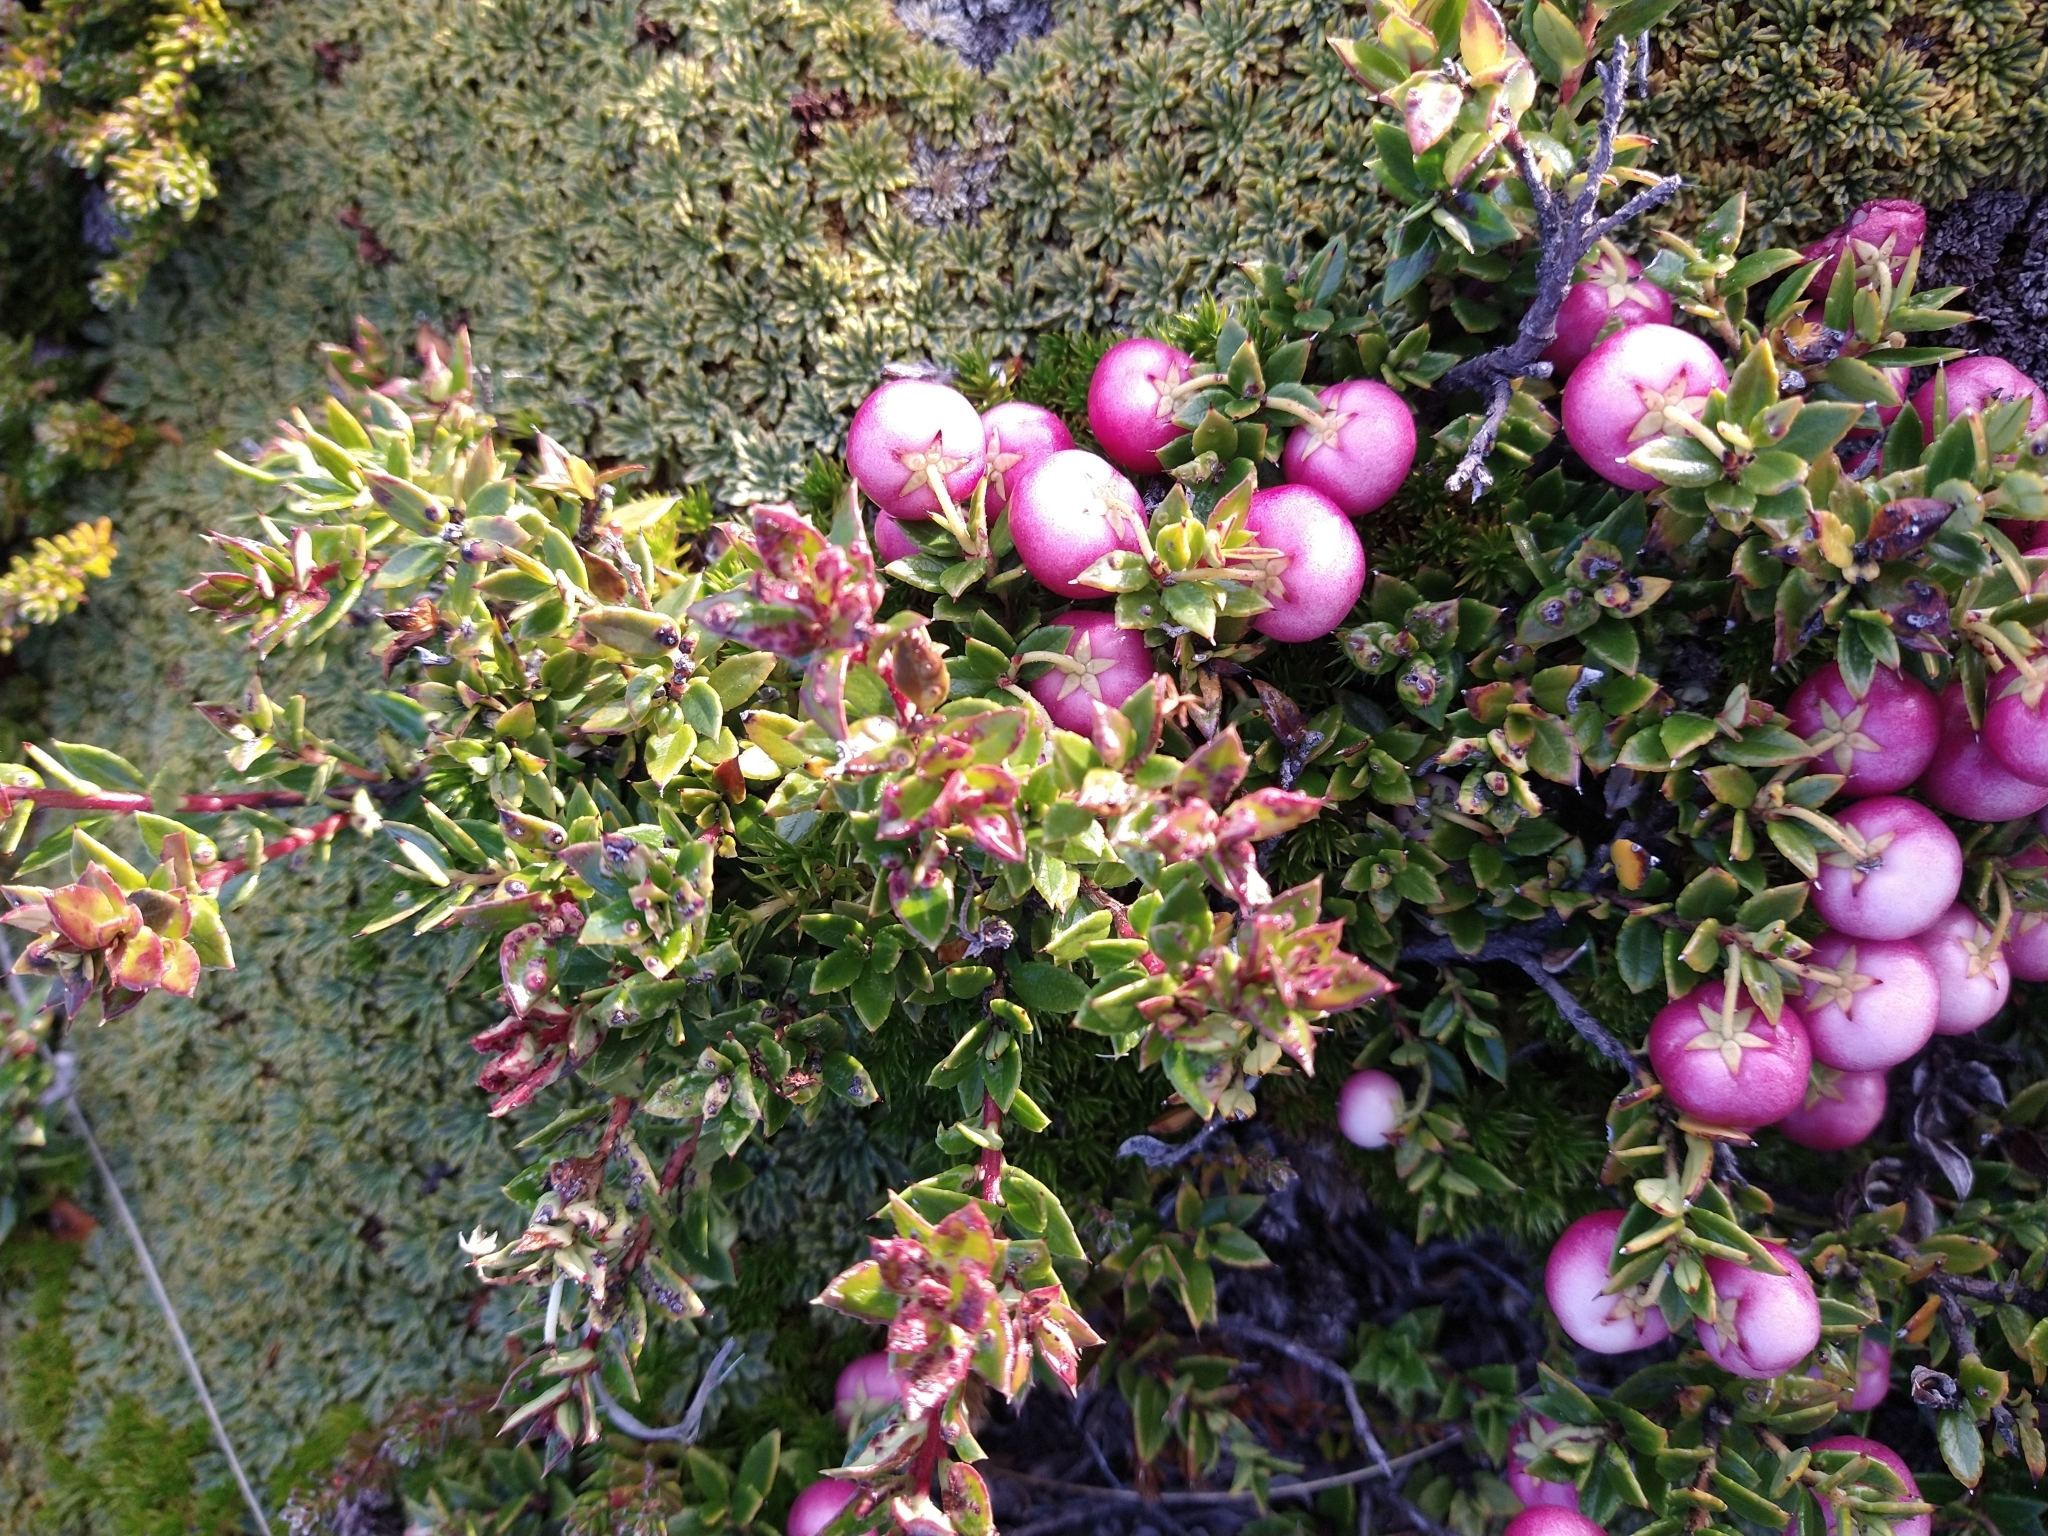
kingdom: Plantae
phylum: Tracheophyta
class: Magnoliopsida
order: Ericales
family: Ericaceae
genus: Gaultheria
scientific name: Gaultheria mucronata
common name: Prickly heath
